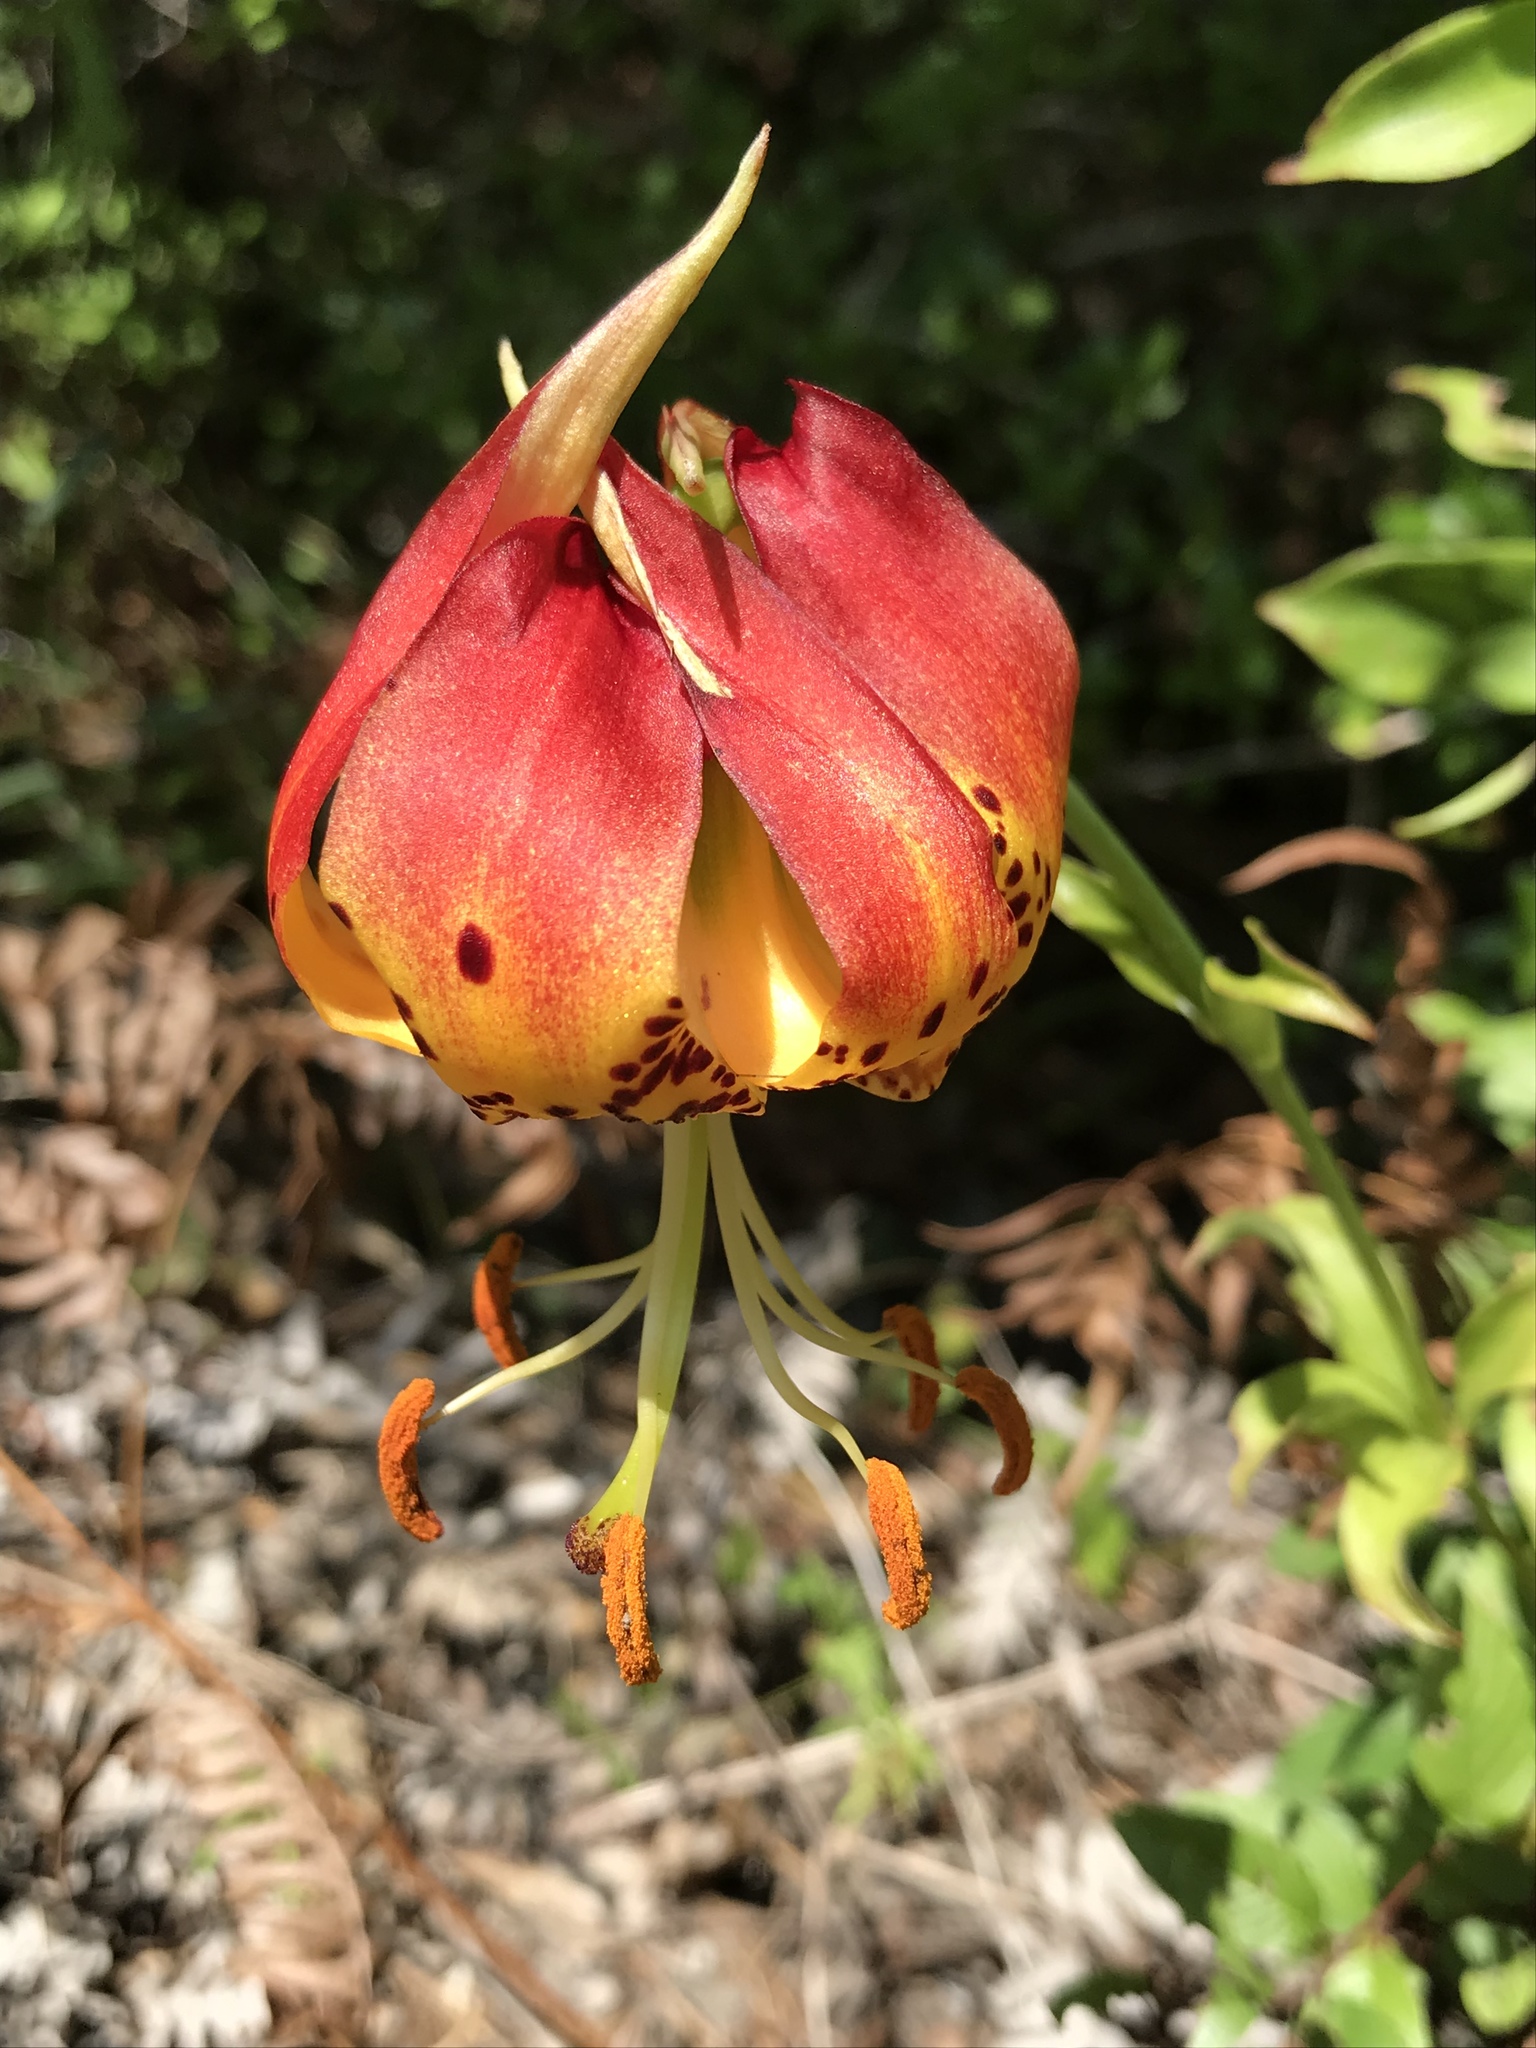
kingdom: Plantae
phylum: Tracheophyta
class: Liliopsida
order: Liliales
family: Liliaceae
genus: Lilium
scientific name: Lilium michauxii
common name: Carolina lily
